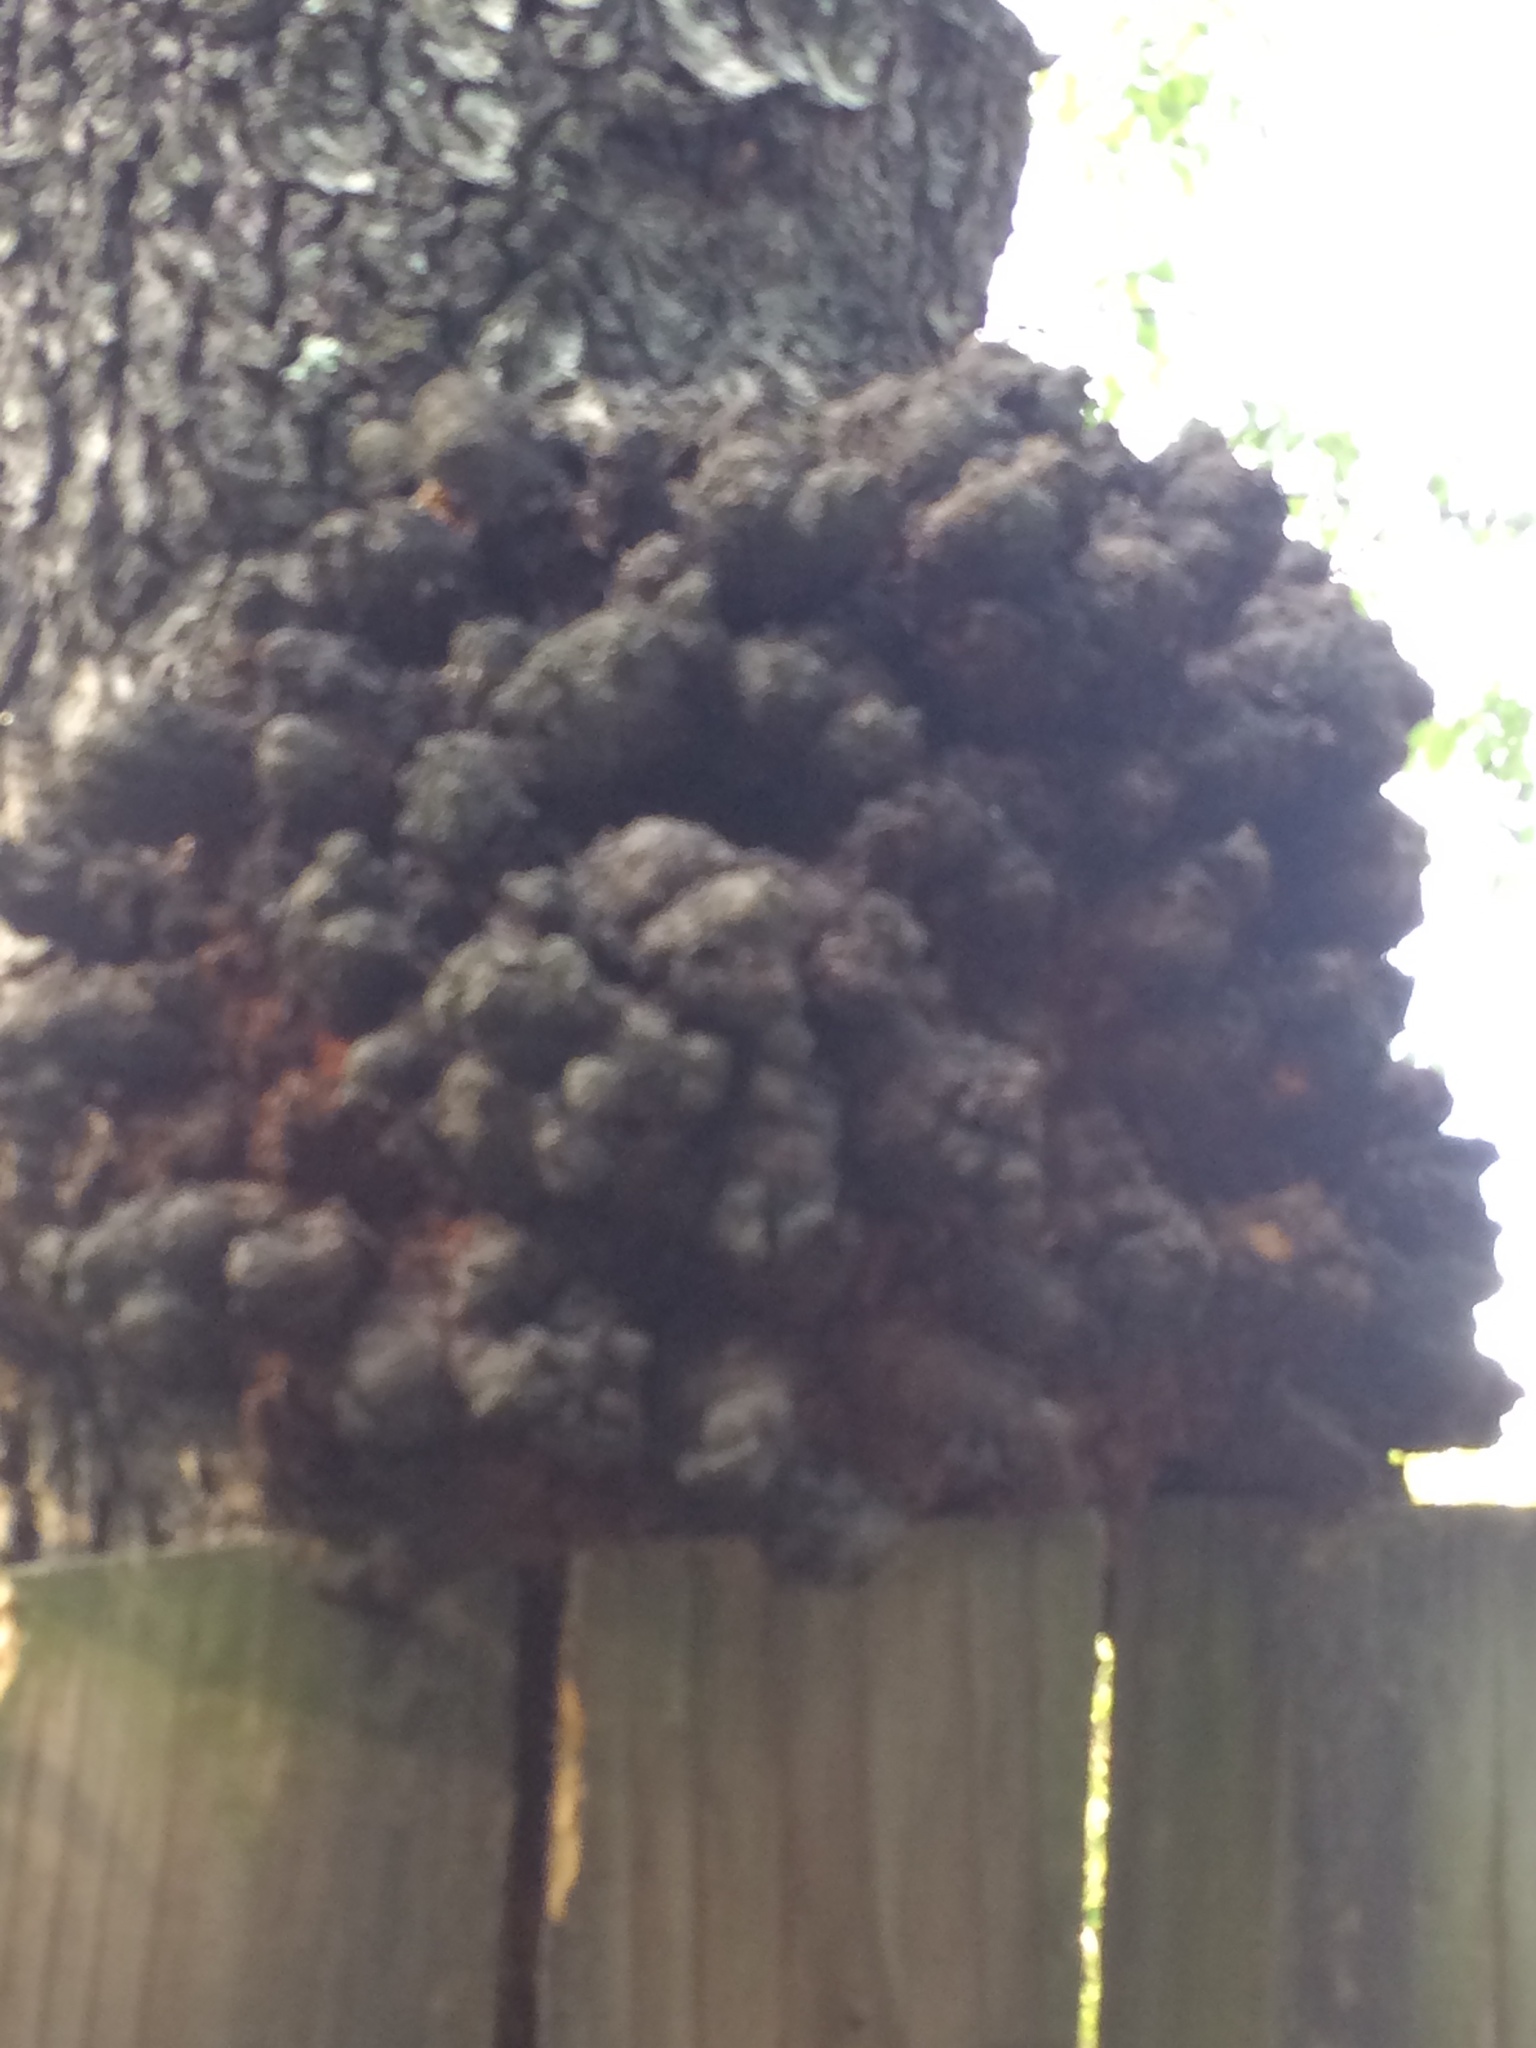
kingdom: Bacteria
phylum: Proteobacteria
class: Alphaproteobacteria
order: Rhizobiales
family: Rhizobiaceae
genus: Rhizobium
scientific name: Rhizobium Agrobacterium radiobacter
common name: Bacterial crown gall
